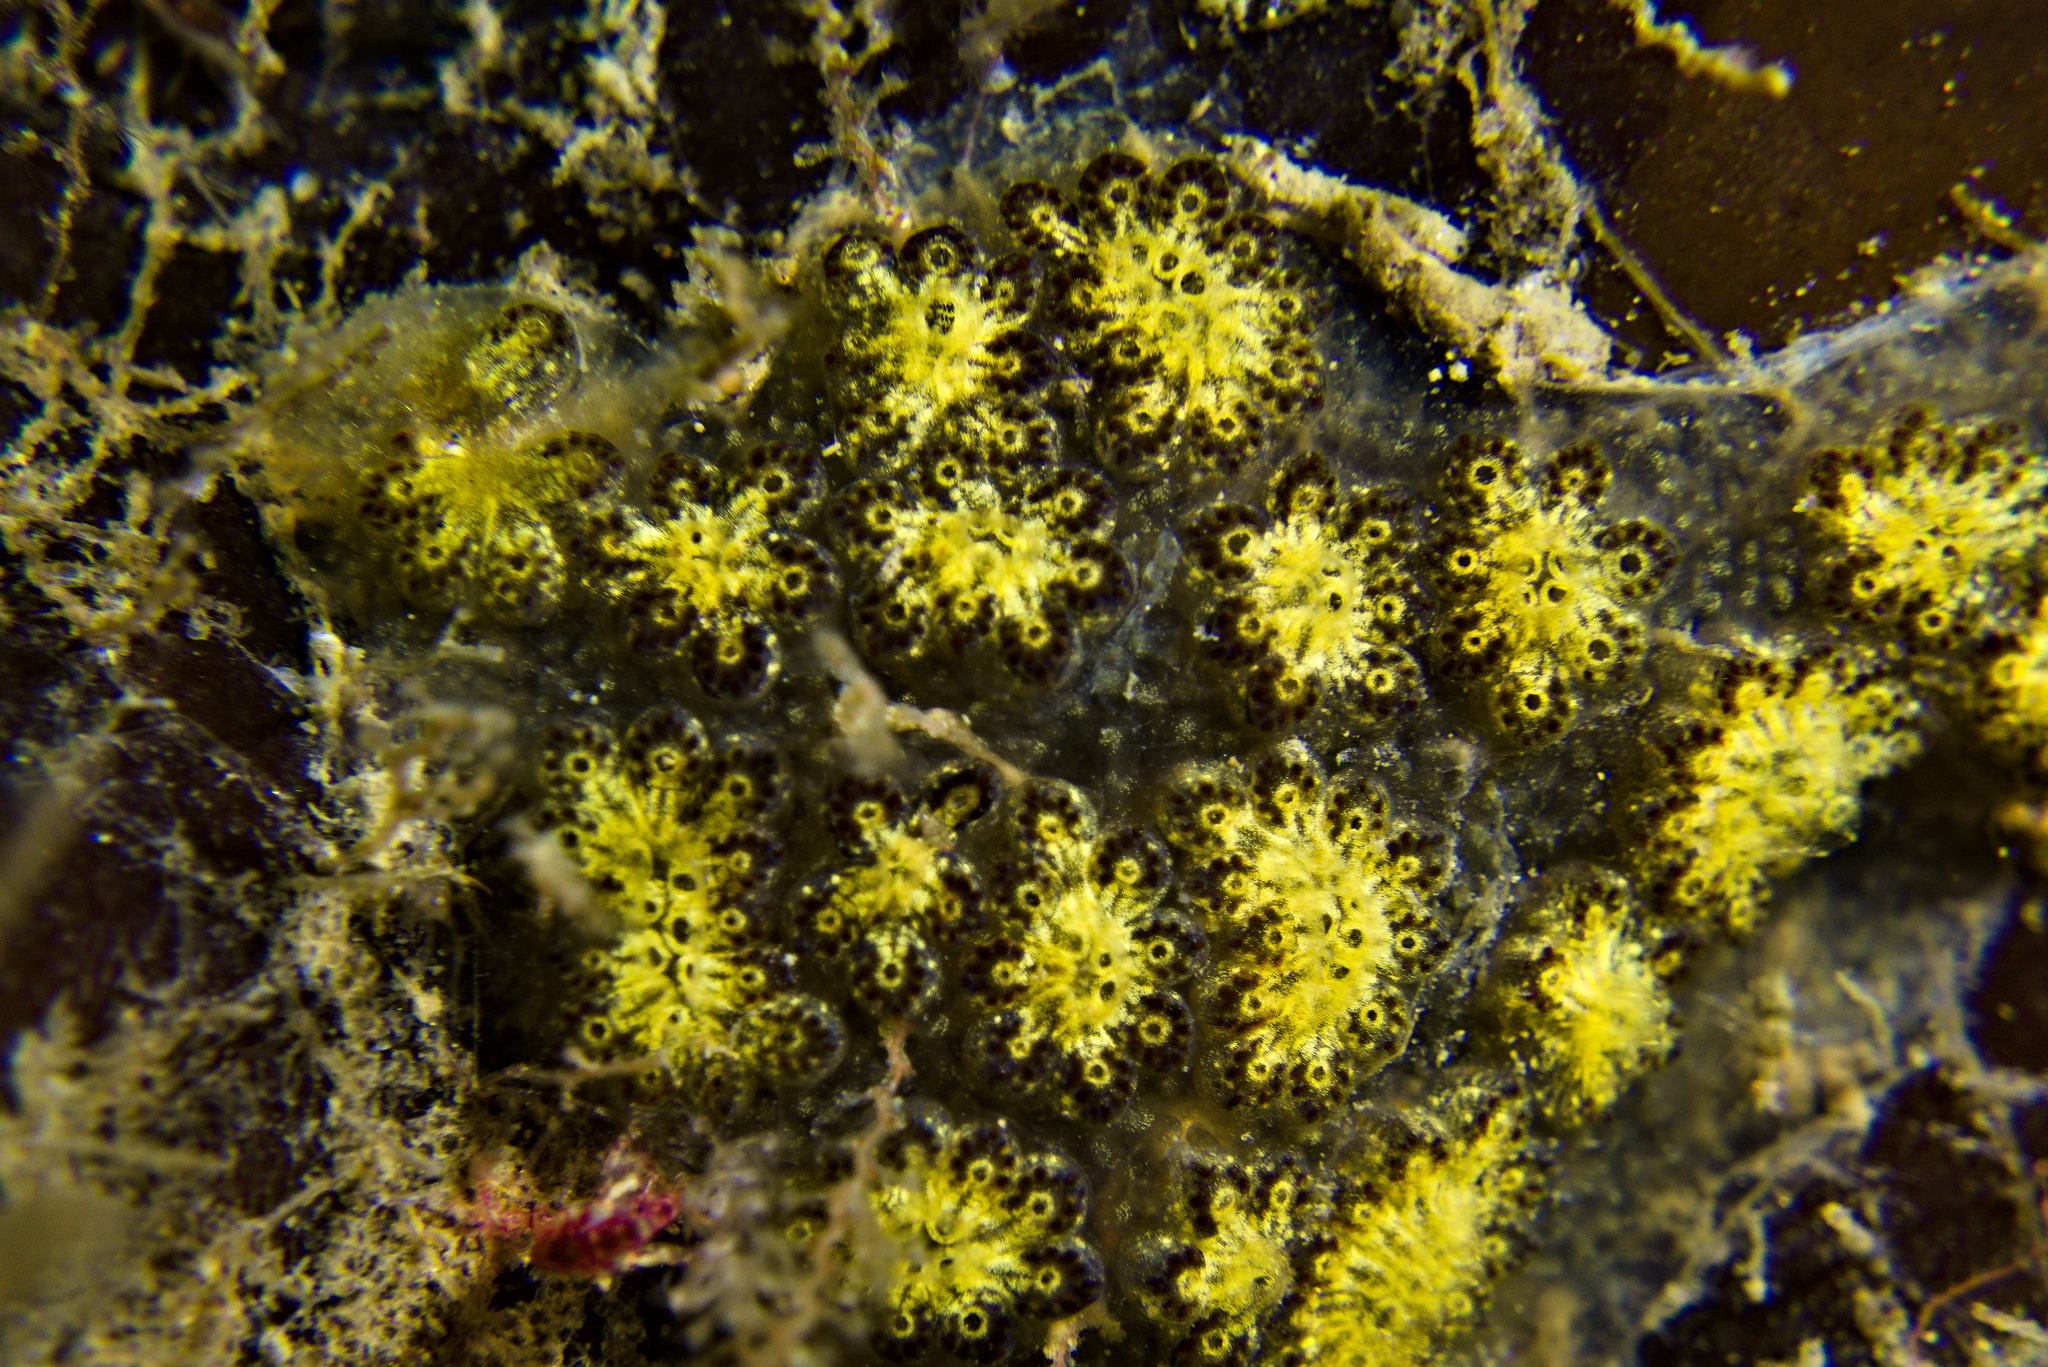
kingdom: Animalia
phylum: Chordata
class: Ascidiacea
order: Stolidobranchia
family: Styelidae
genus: Botryllus
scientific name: Botryllus schlosseri
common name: Golden star tunicate
